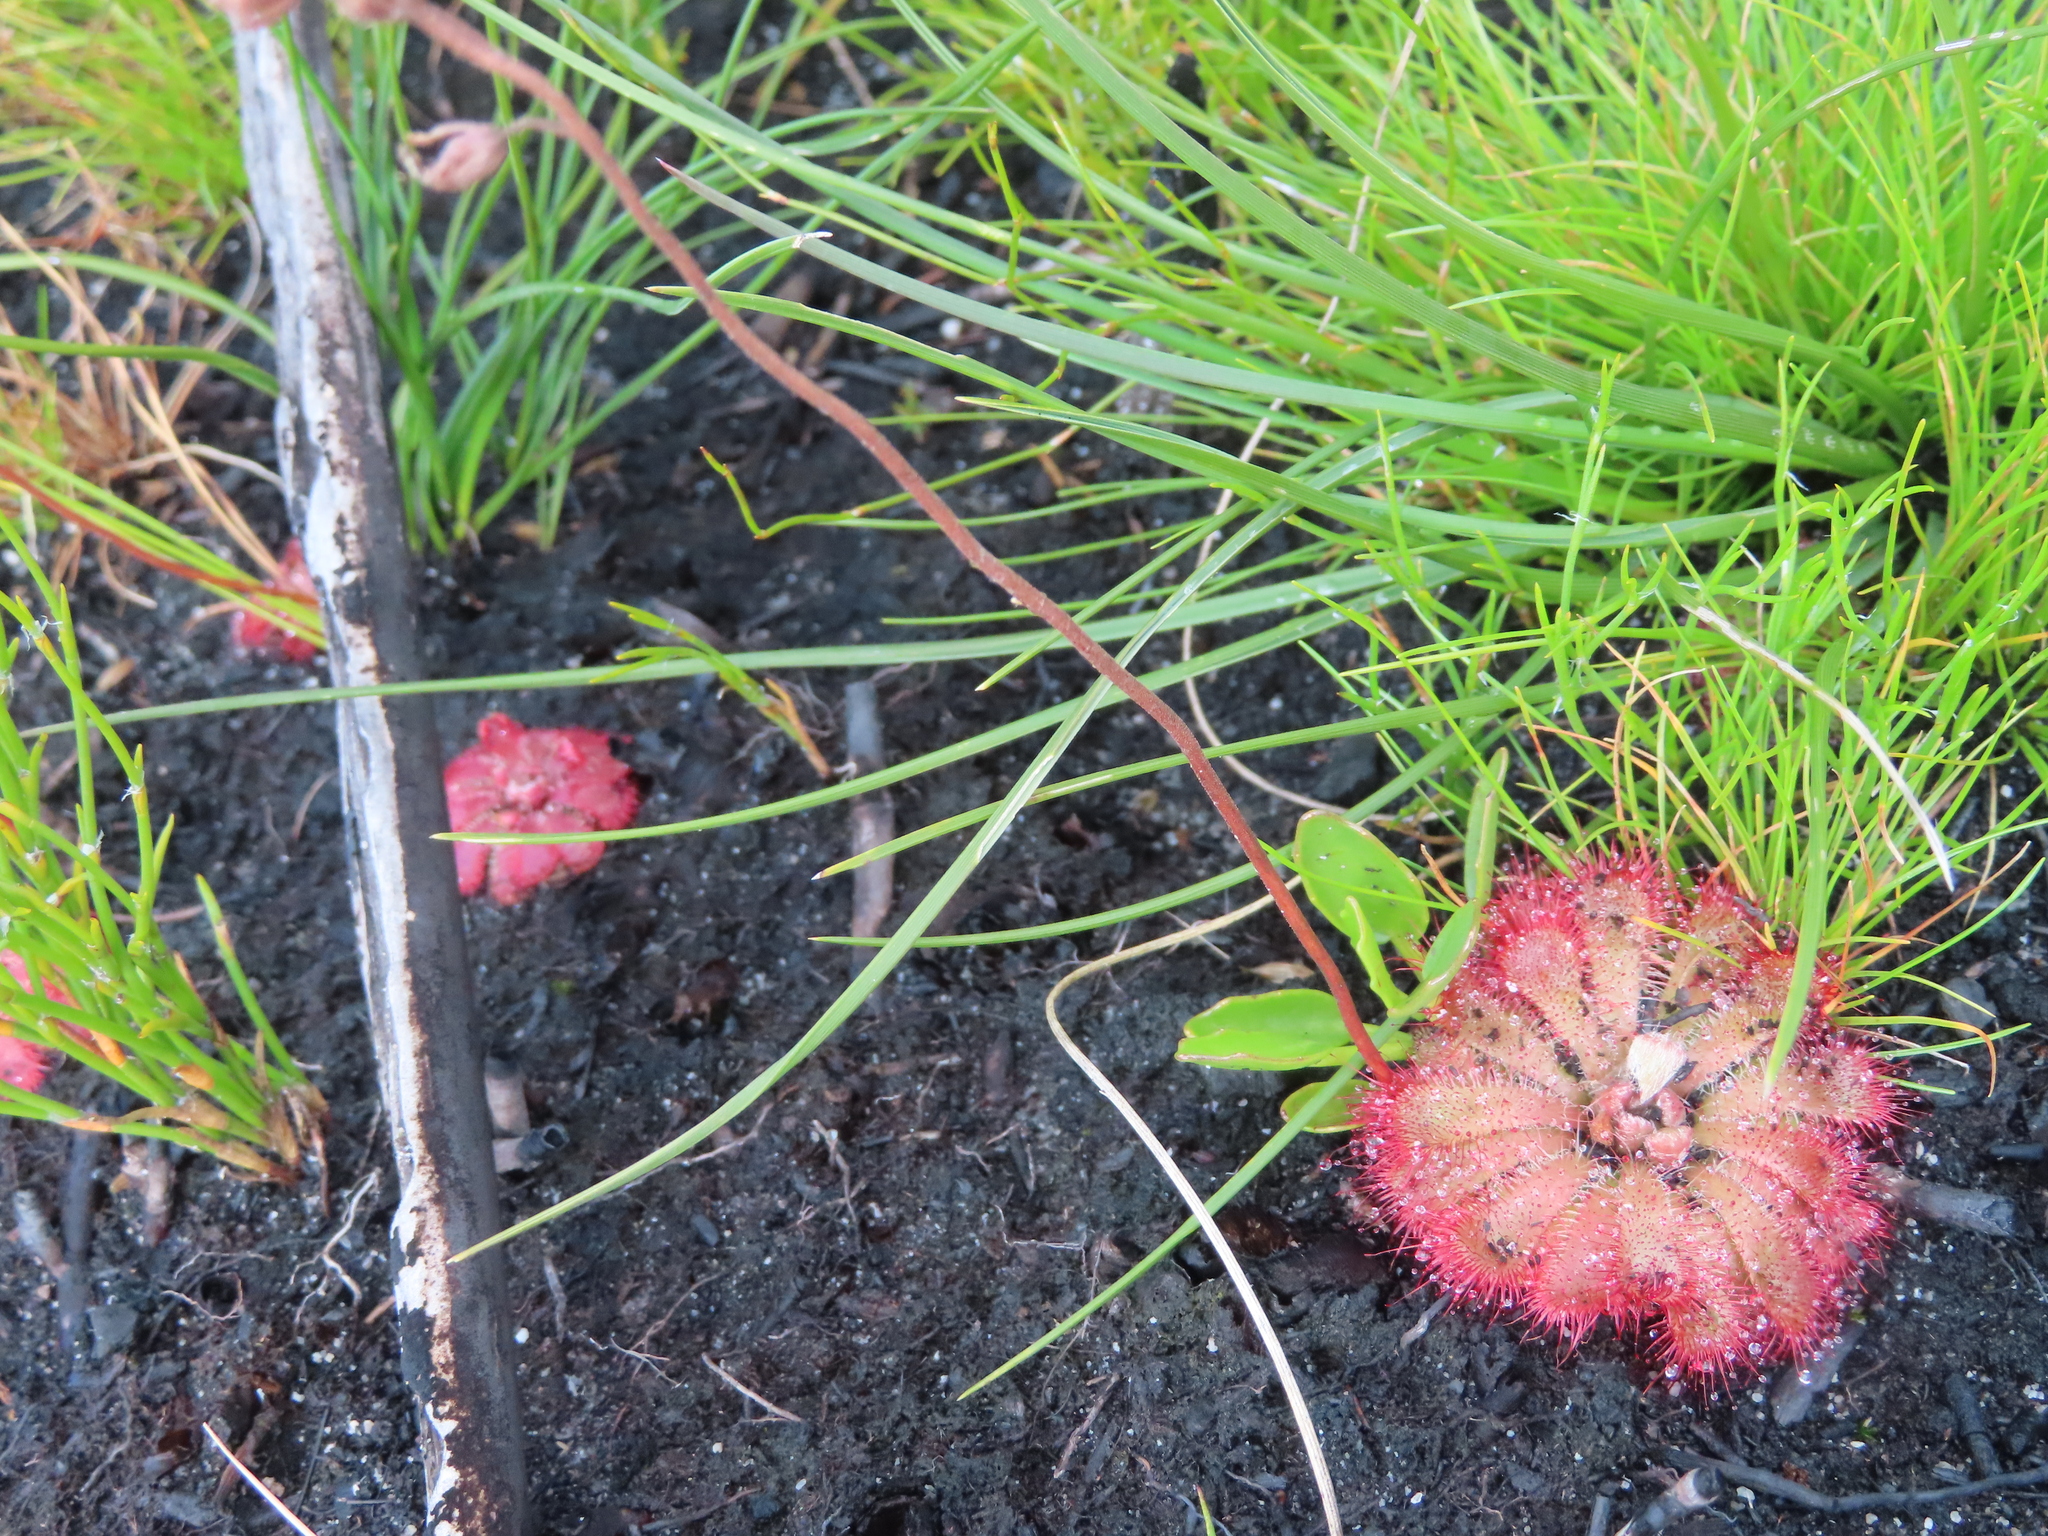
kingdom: Plantae
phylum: Tracheophyta
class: Magnoliopsida
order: Caryophyllales
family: Droseraceae
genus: Drosera
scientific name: Drosera aliciae
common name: Alice sundew
